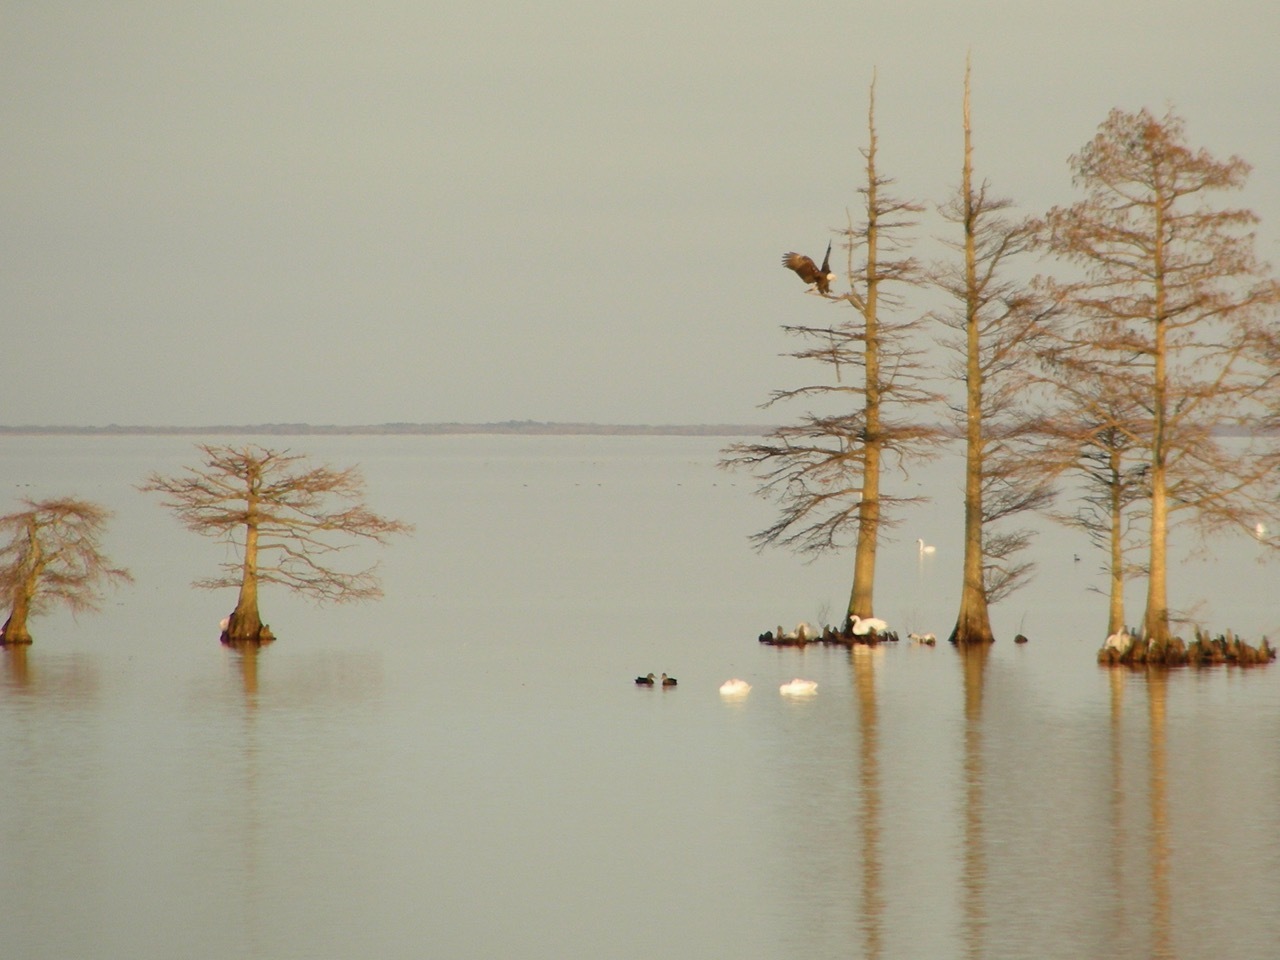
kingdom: Animalia
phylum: Chordata
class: Aves
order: Accipitriformes
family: Accipitridae
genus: Haliaeetus
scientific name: Haliaeetus leucocephalus
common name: Bald eagle
